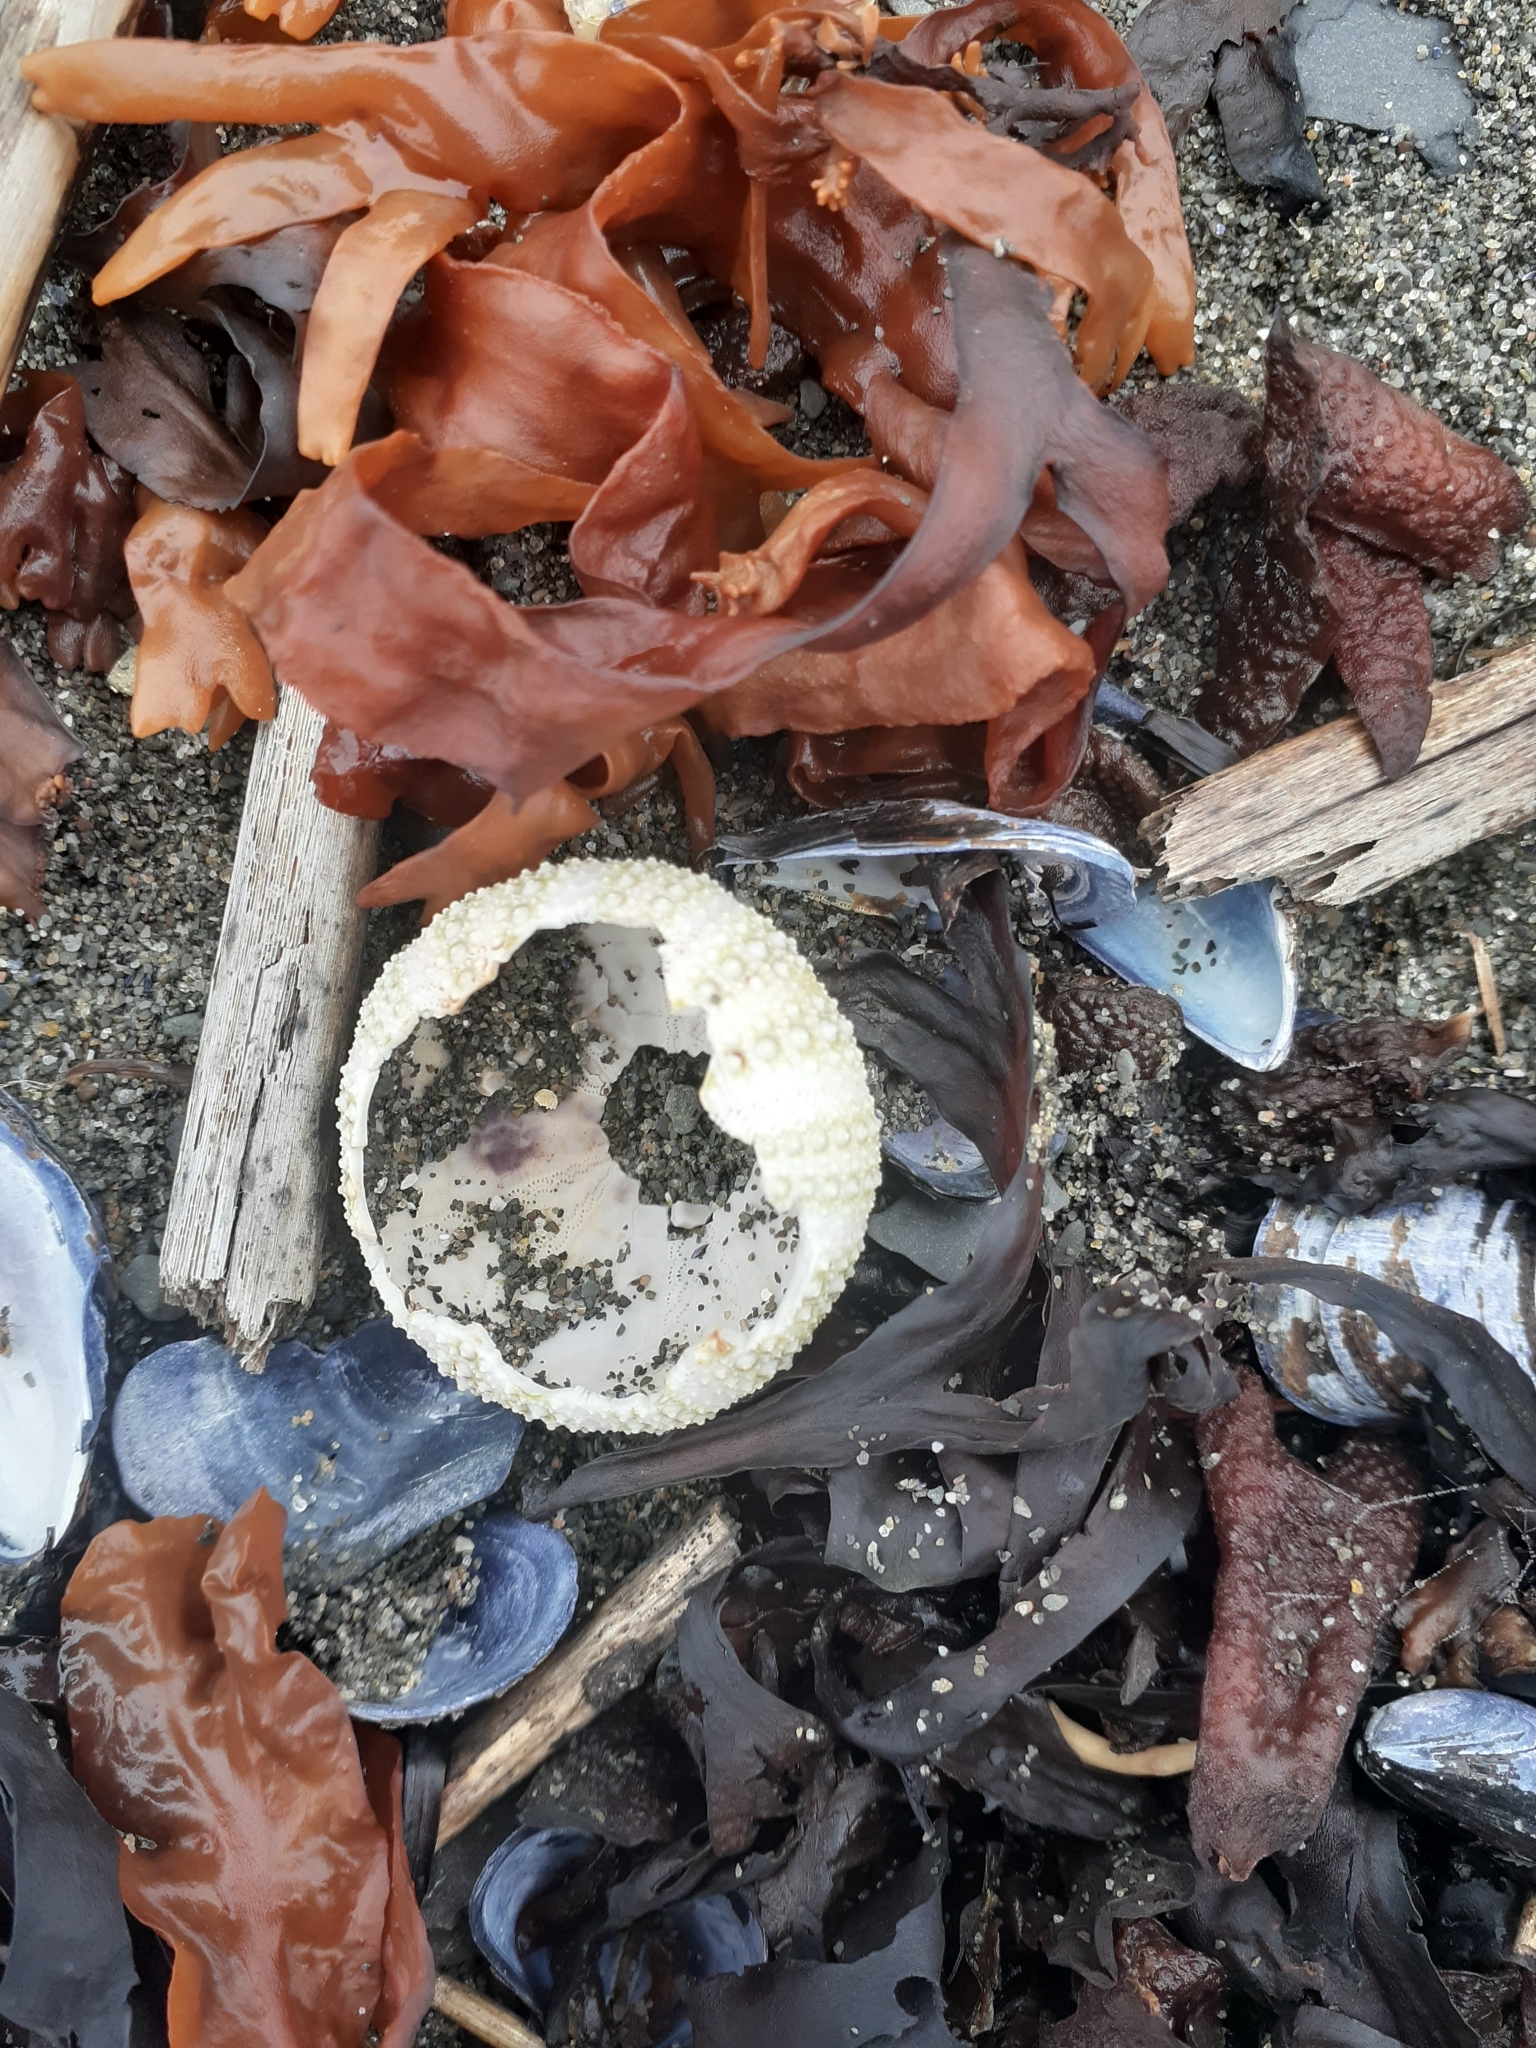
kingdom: Animalia
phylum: Echinodermata
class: Echinoidea
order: Camarodonta
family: Strongylocentrotidae
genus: Strongylocentrotus
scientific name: Strongylocentrotus droebachiensis
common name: Northern sea urchin
